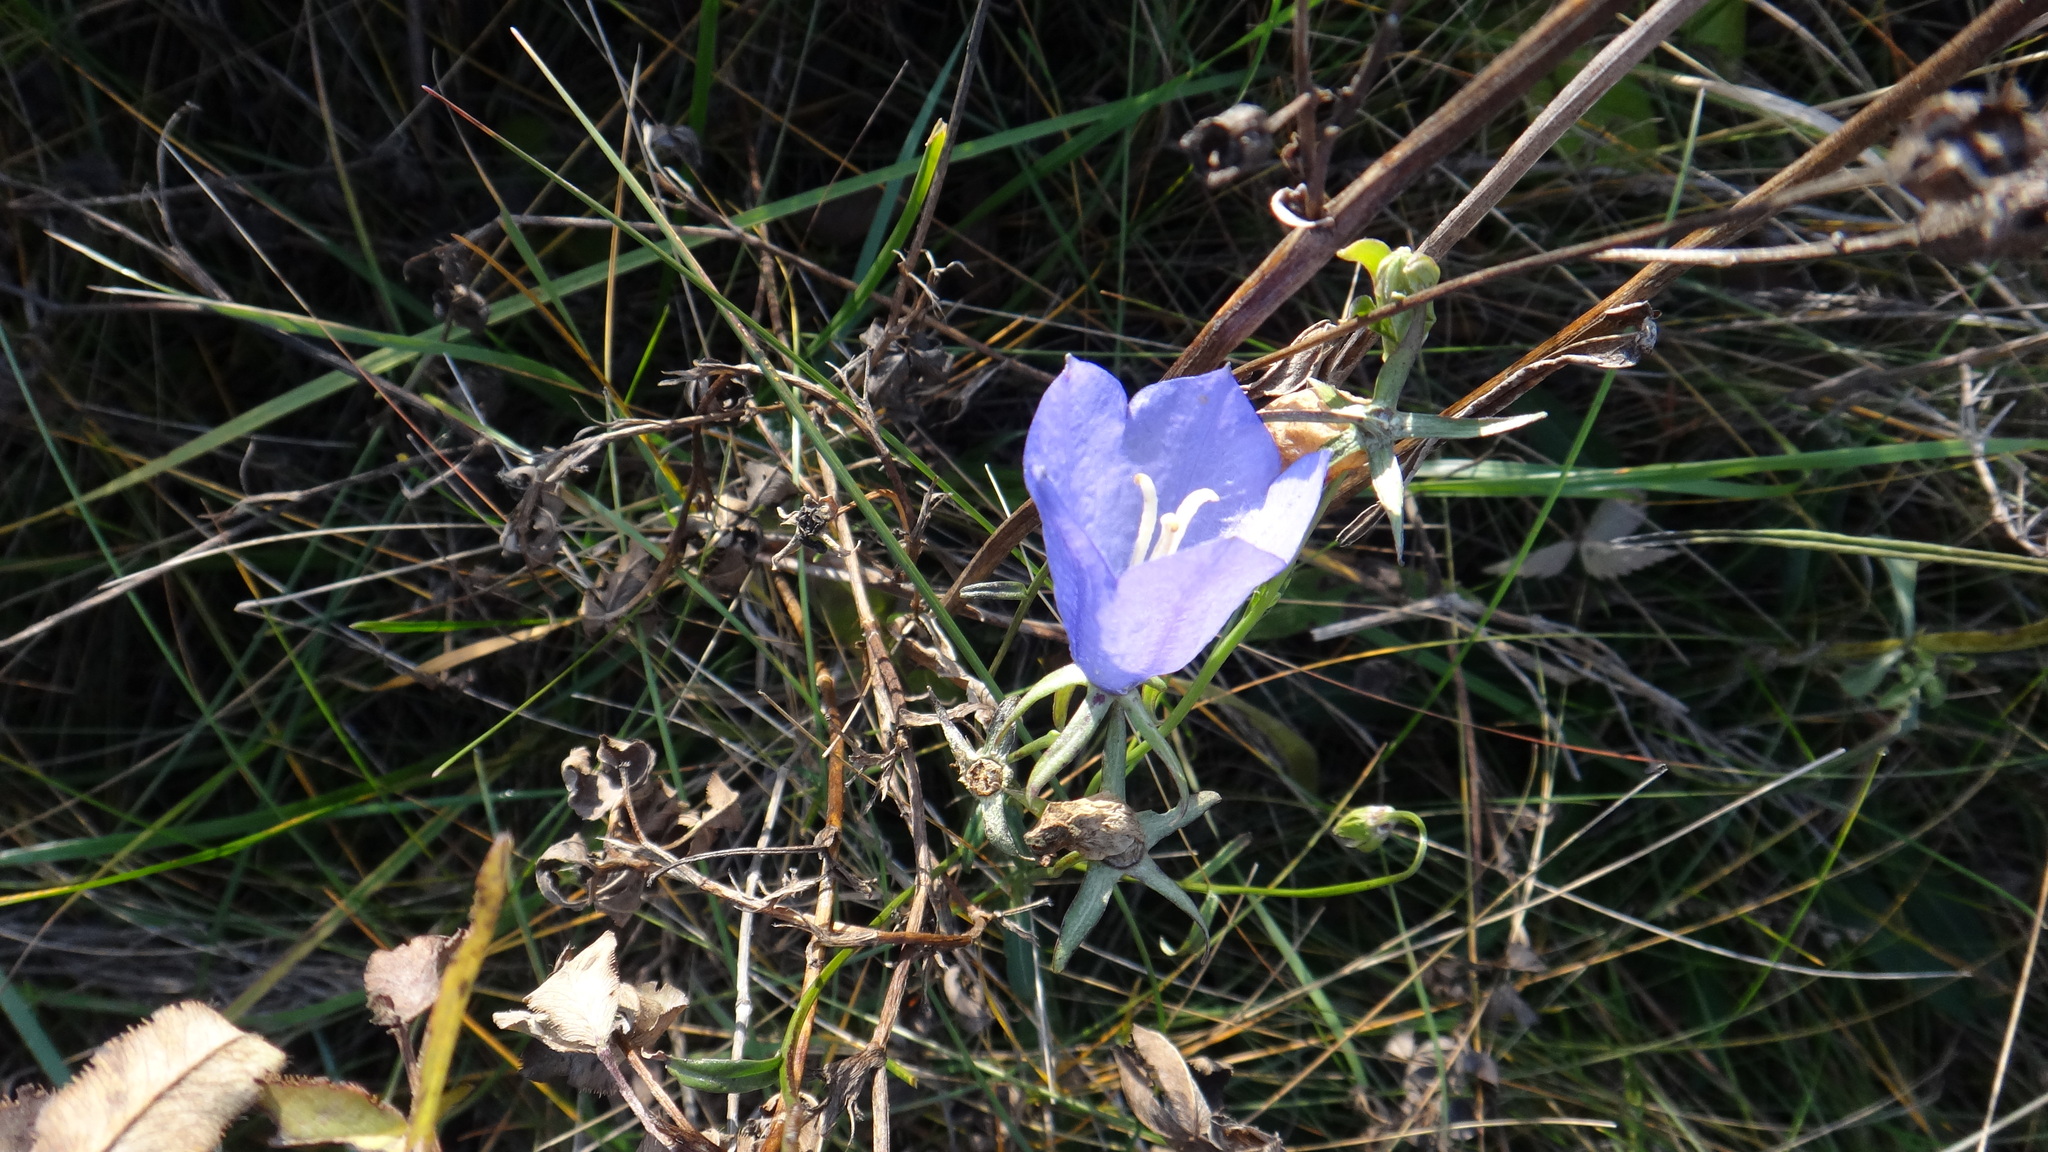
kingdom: Plantae
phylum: Tracheophyta
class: Magnoliopsida
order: Asterales
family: Campanulaceae
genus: Campanula
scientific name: Campanula persicifolia
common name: Peach-leaved bellflower
